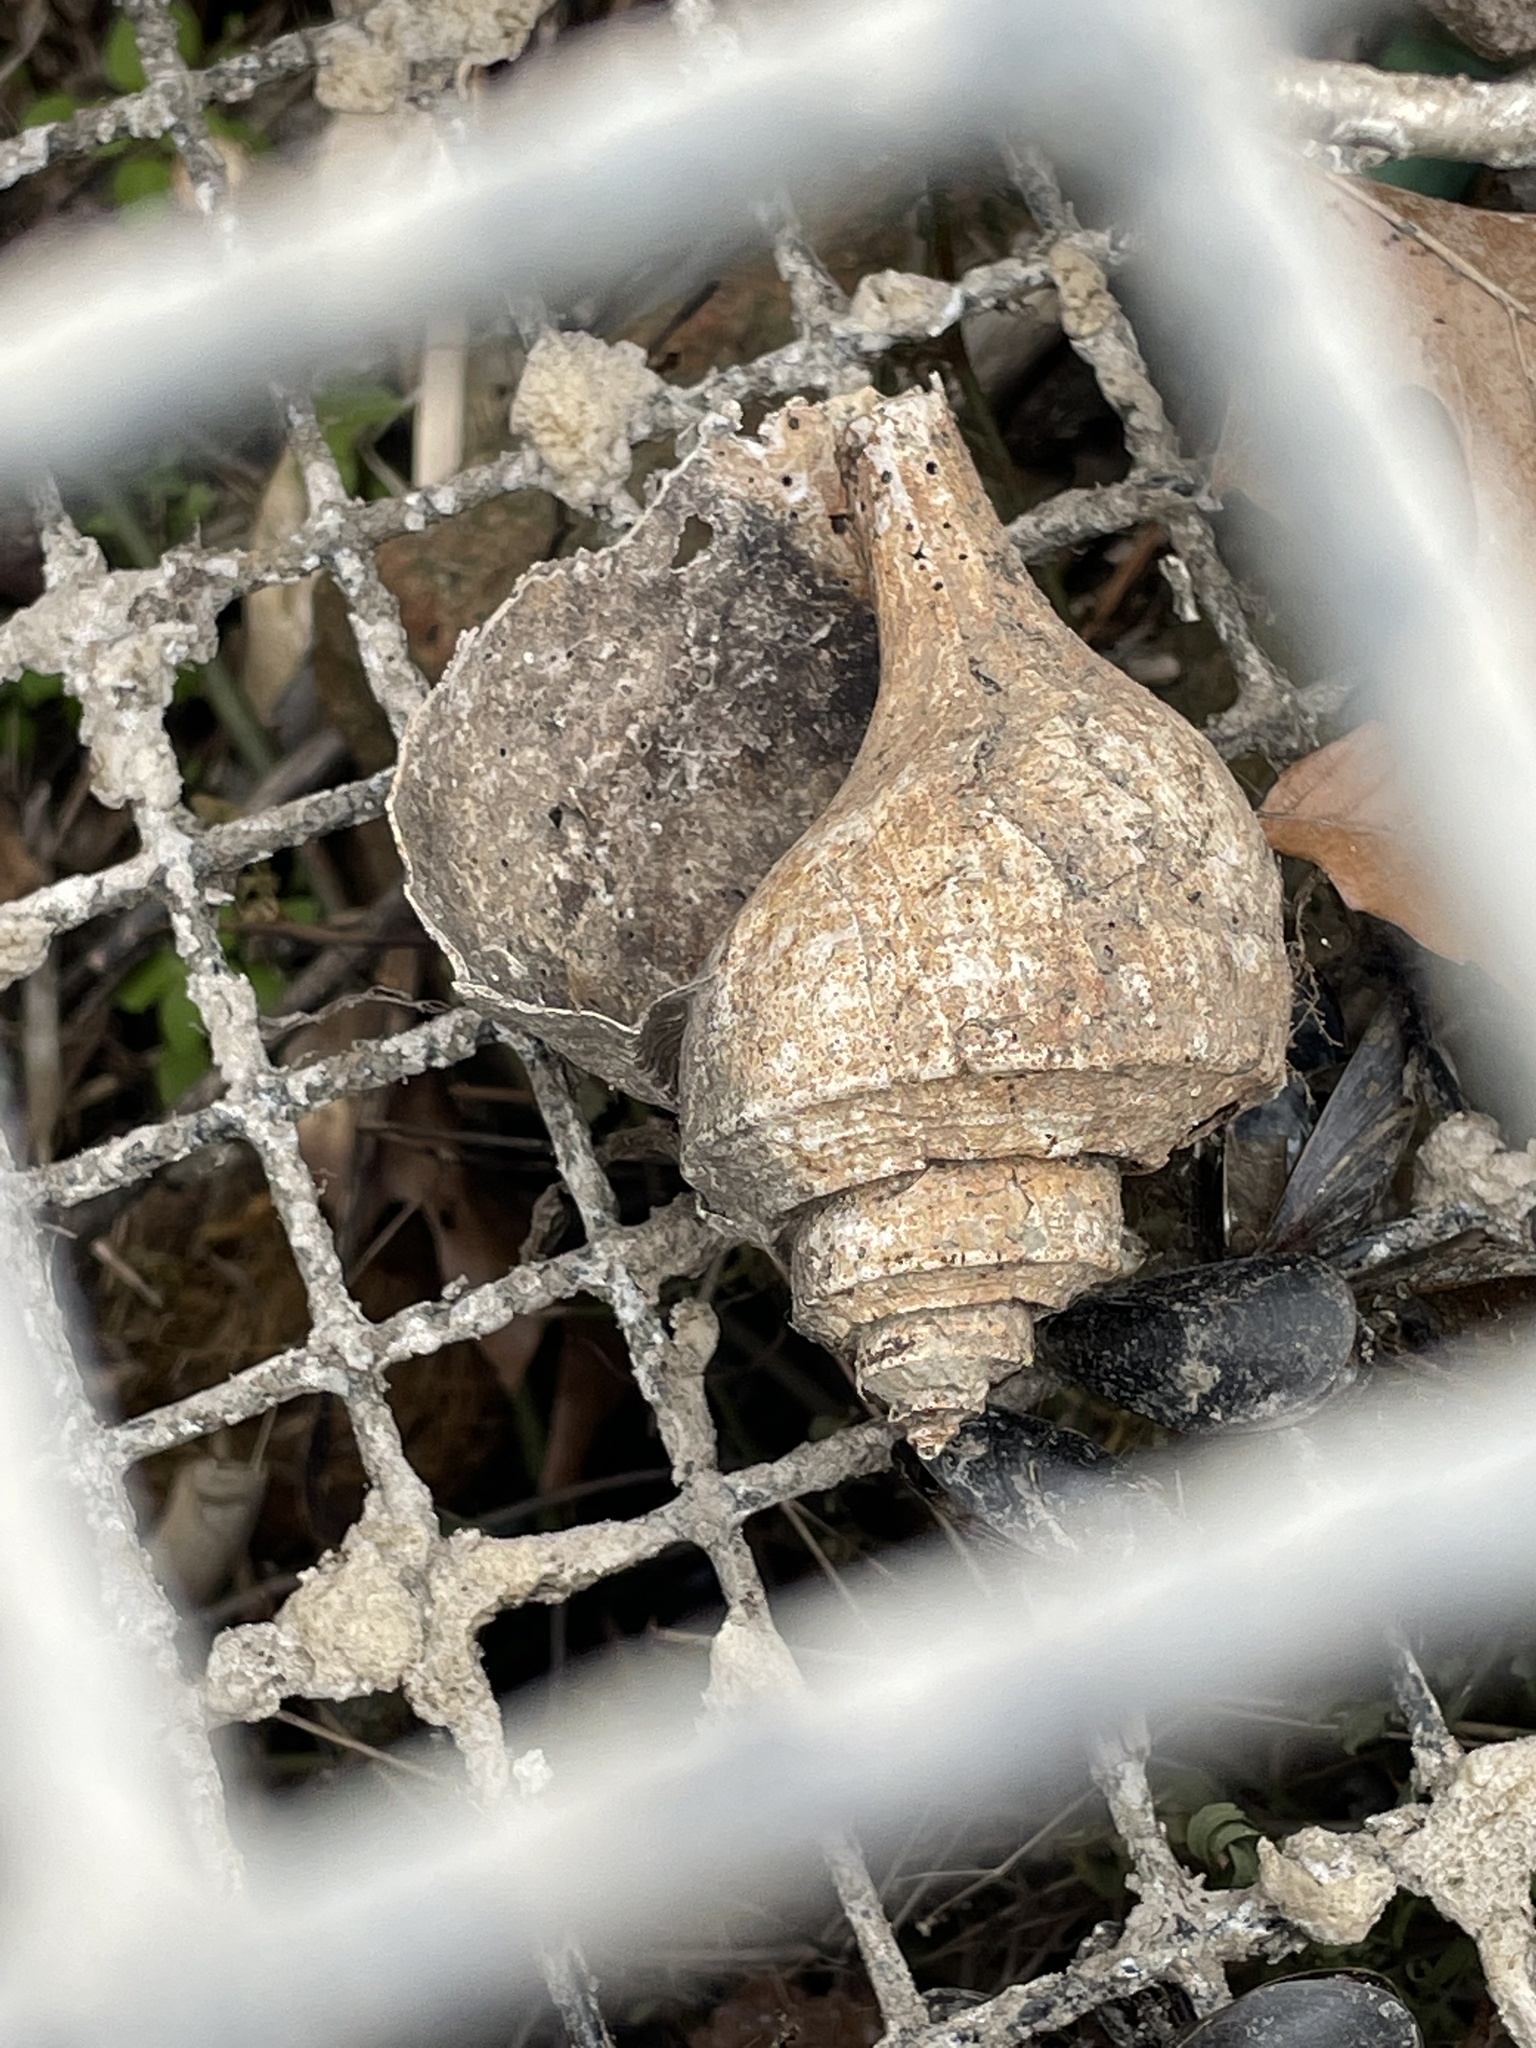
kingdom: Animalia
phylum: Mollusca
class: Gastropoda
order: Neogastropoda
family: Busyconidae
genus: Busycotypus
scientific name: Busycotypus canaliculatus
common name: Channeled whelk
